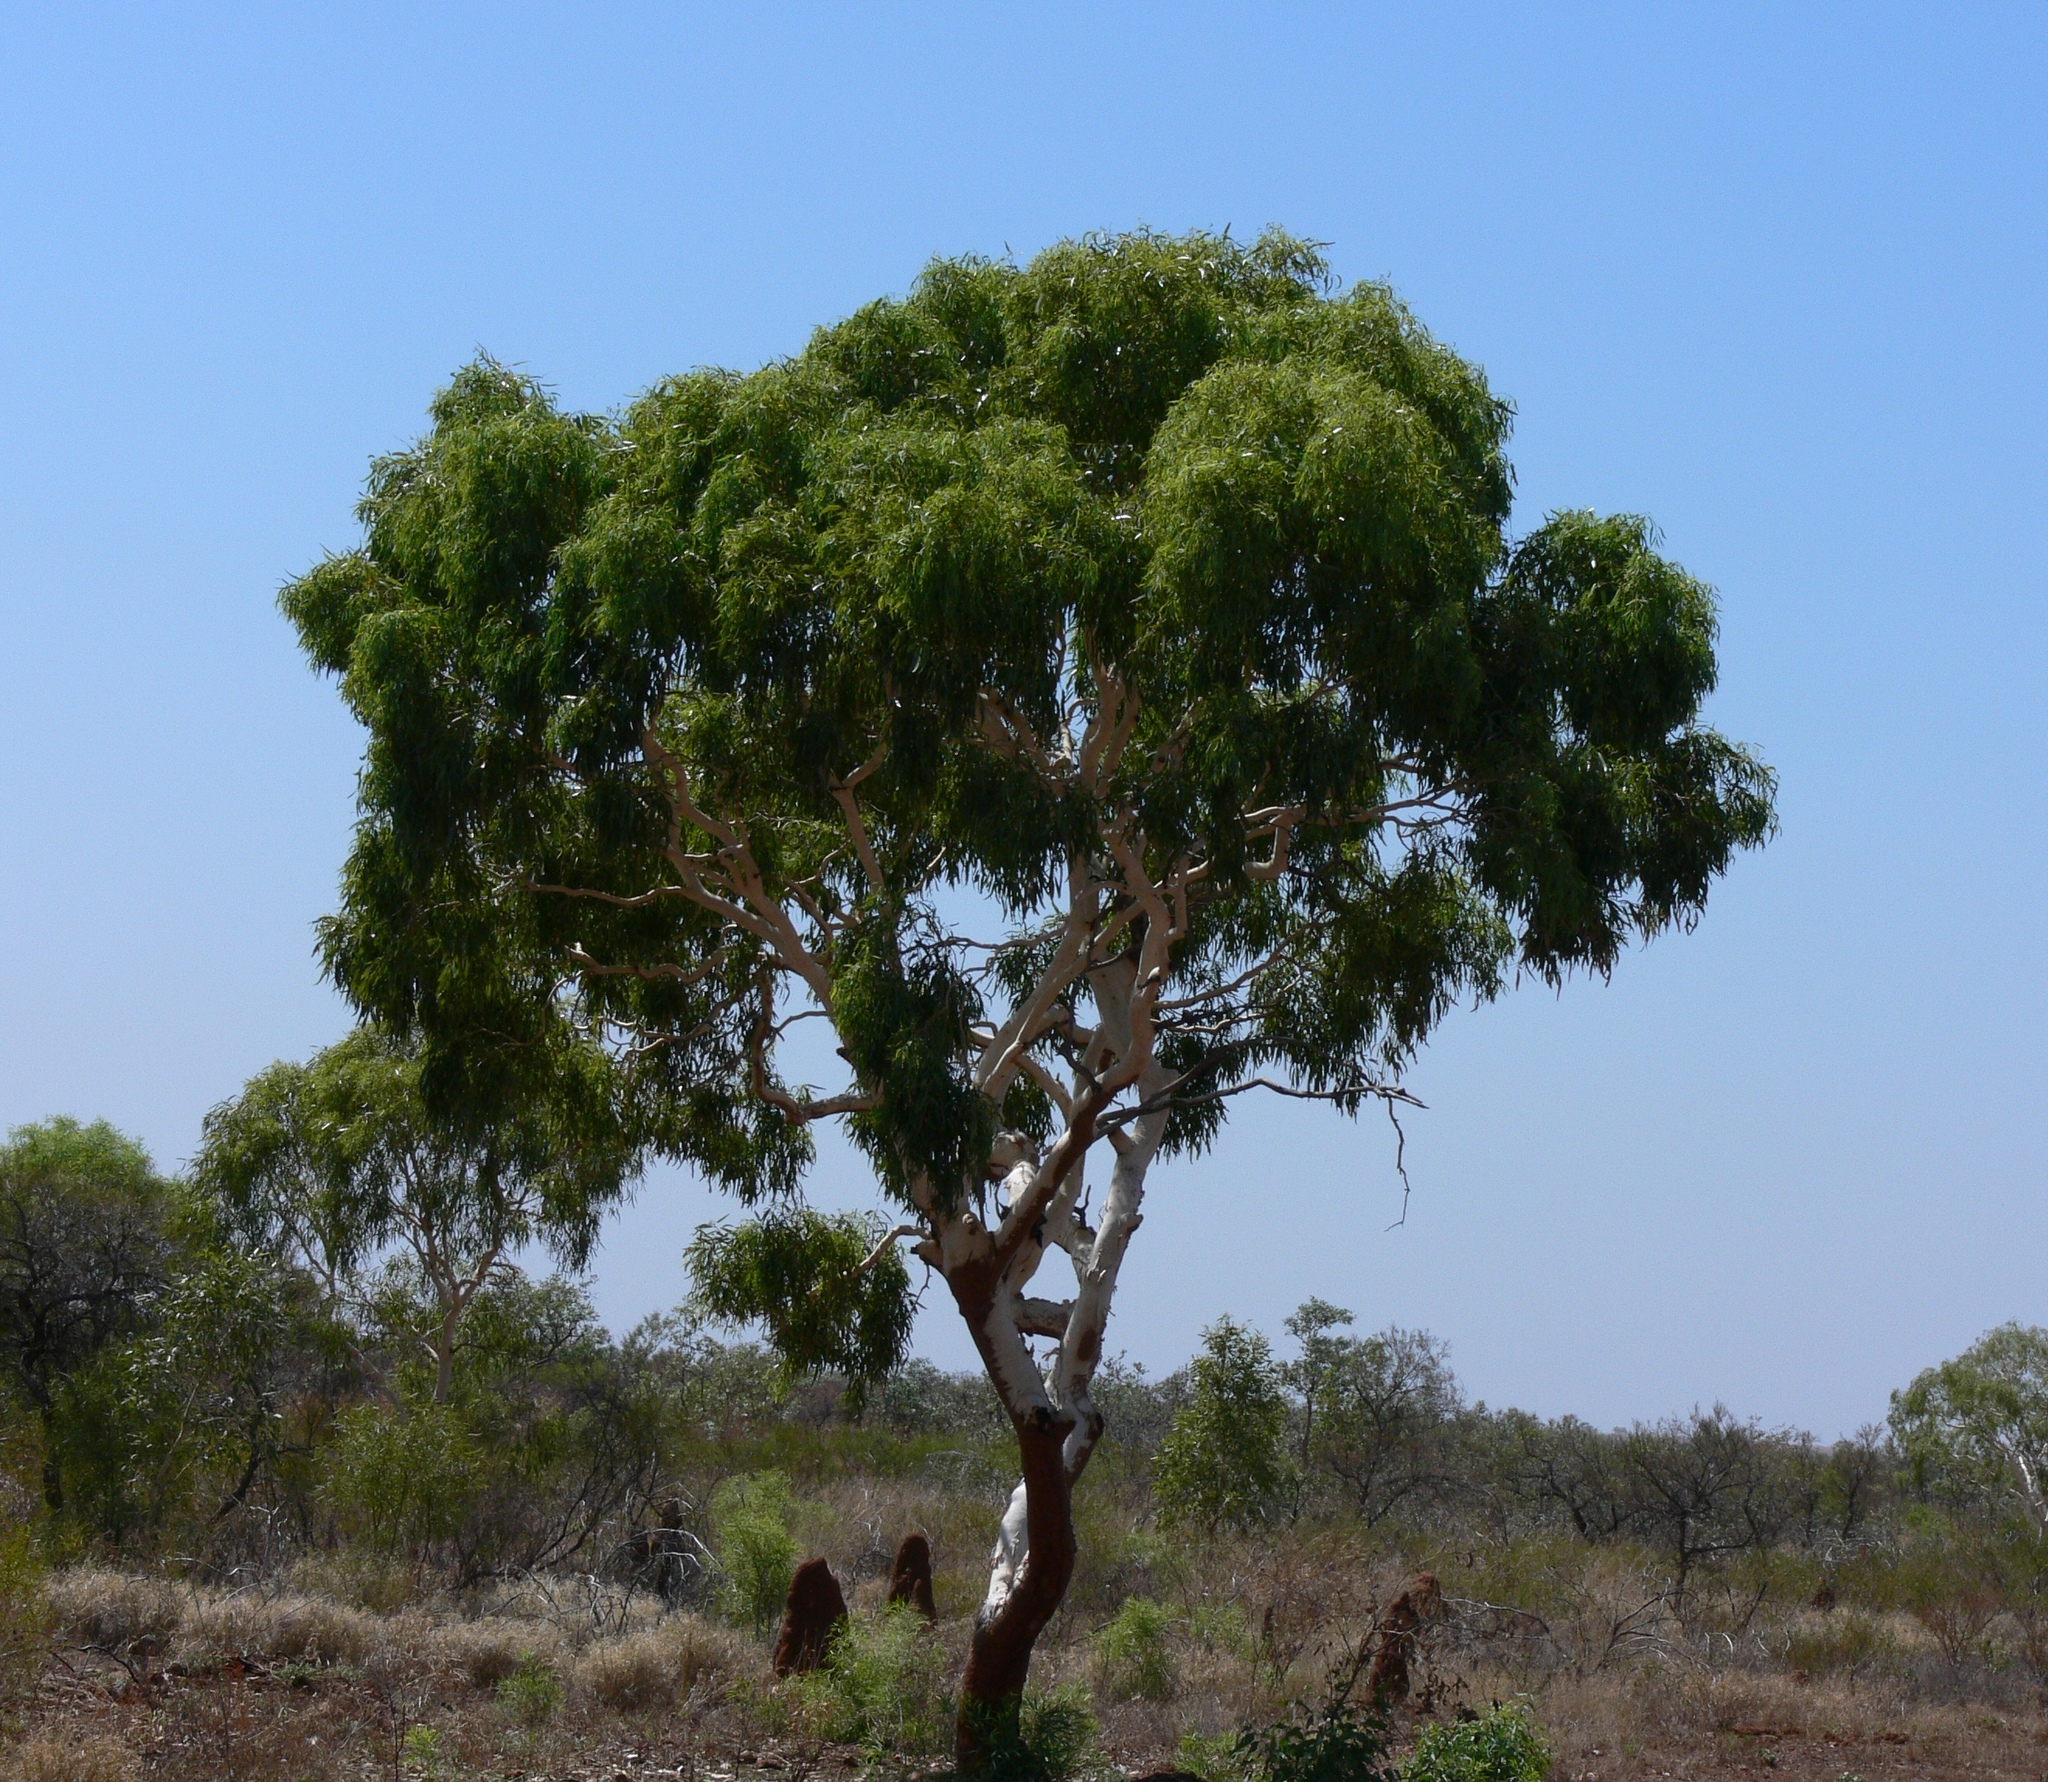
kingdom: Plantae
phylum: Tracheophyta
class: Magnoliopsida
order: Myrtales
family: Myrtaceae
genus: Corymbia
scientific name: Corymbia aparrerinja
